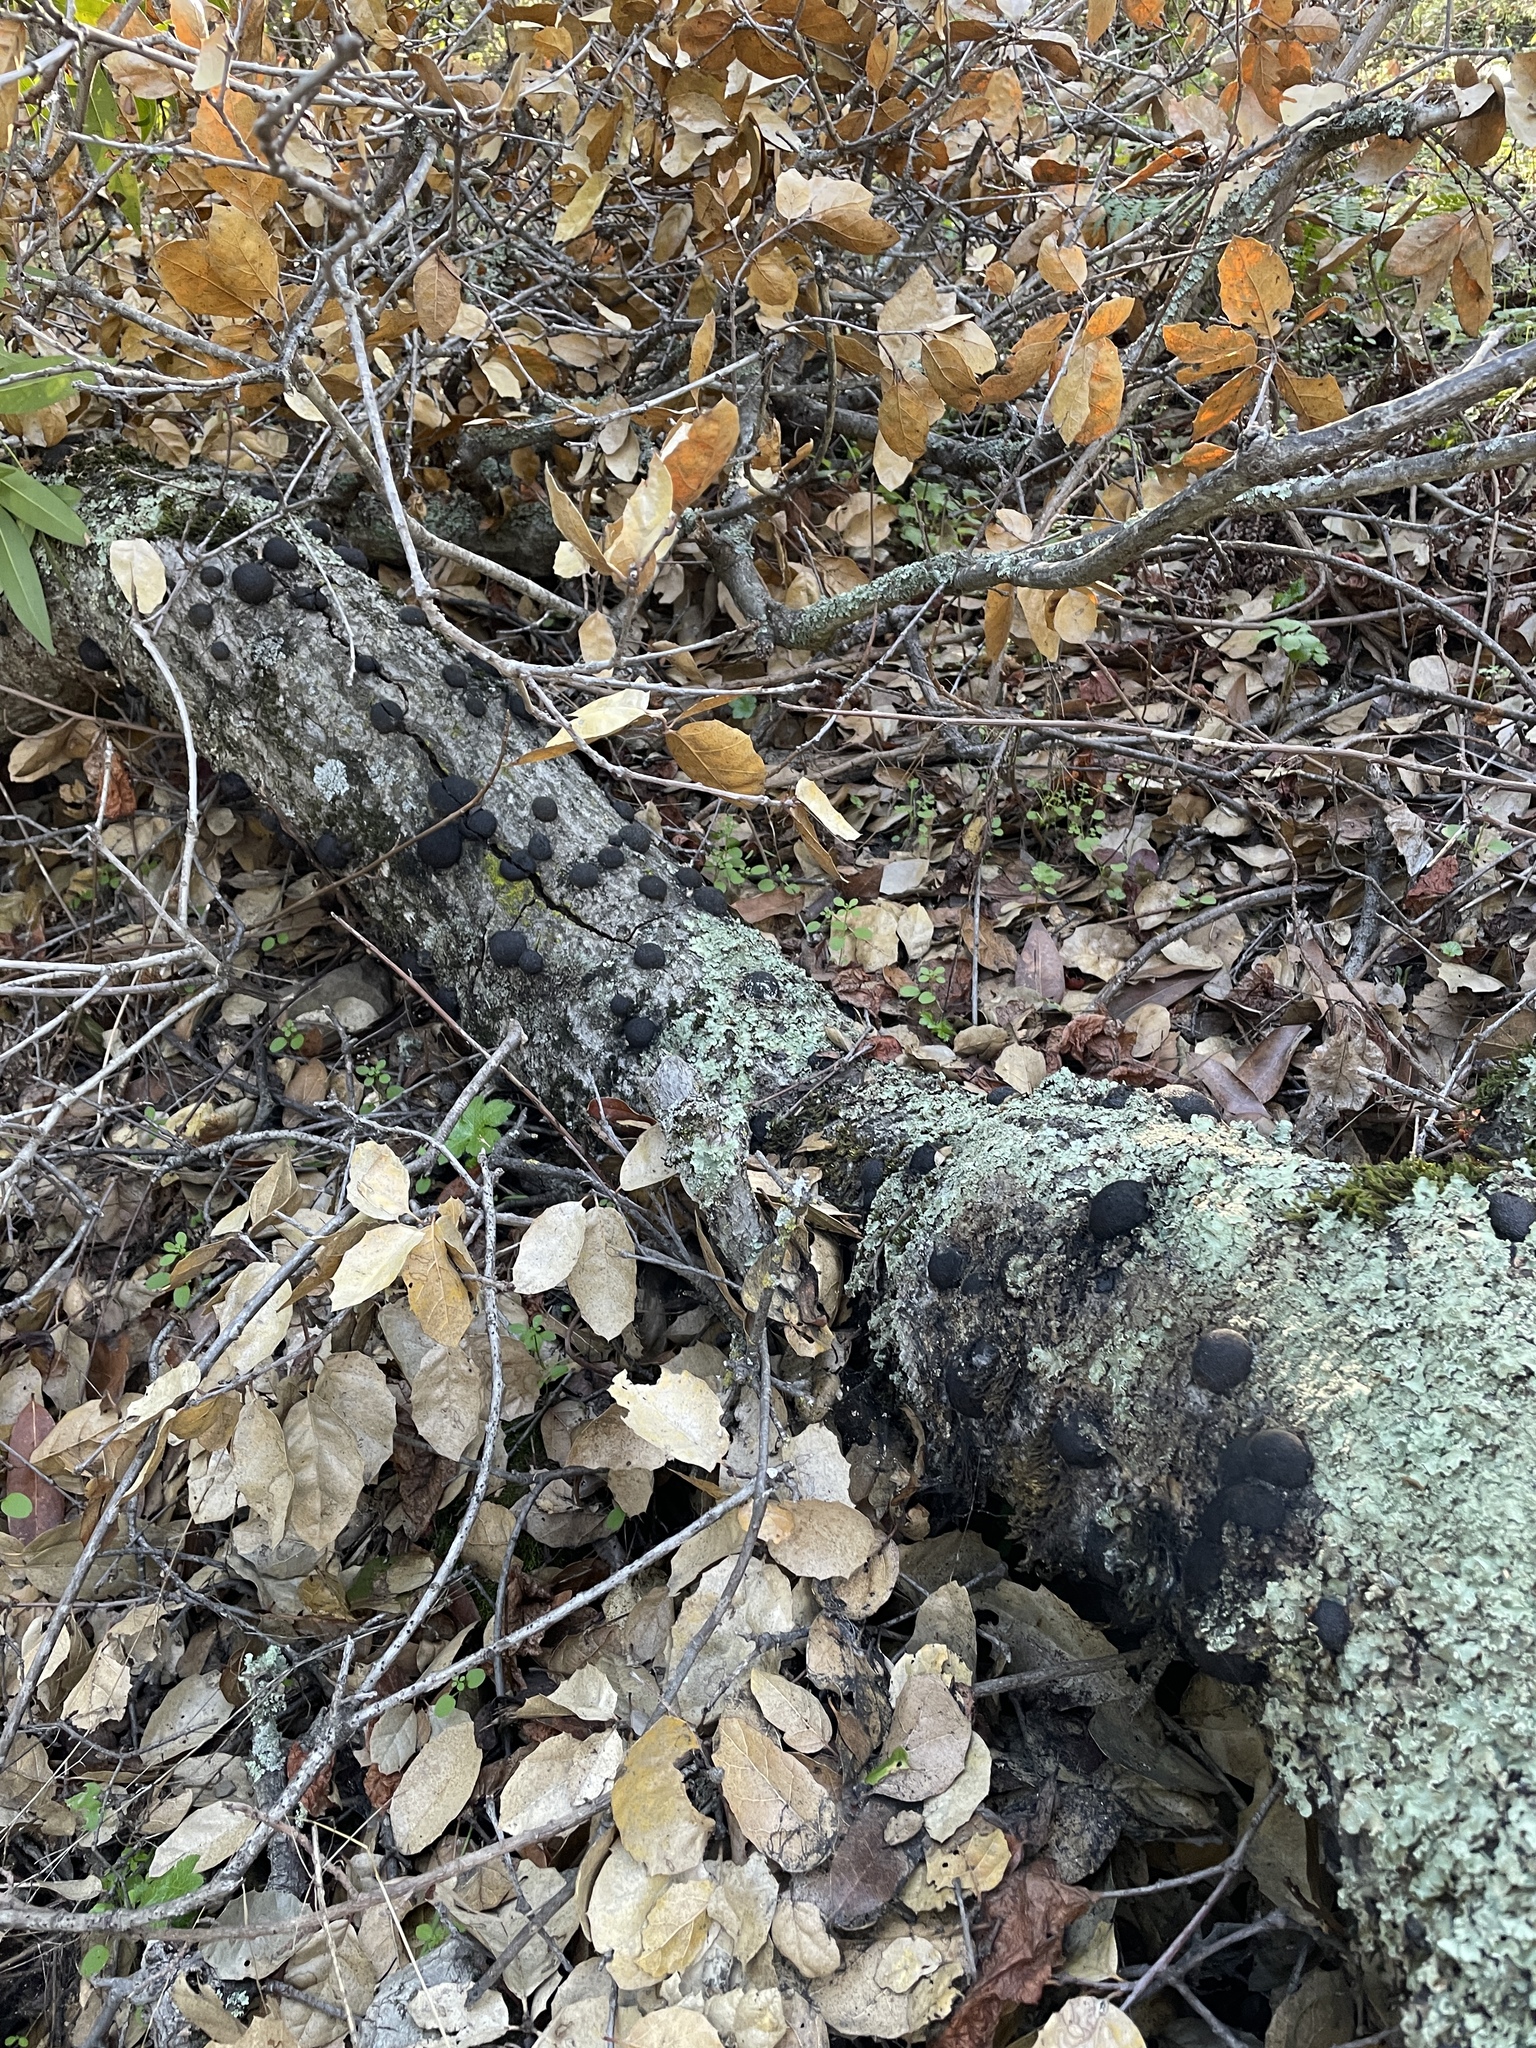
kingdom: Fungi
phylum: Ascomycota
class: Sordariomycetes
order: Xylariales
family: Hypoxylaceae
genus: Annulohypoxylon
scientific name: Annulohypoxylon thouarsianum
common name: Cramp balls
